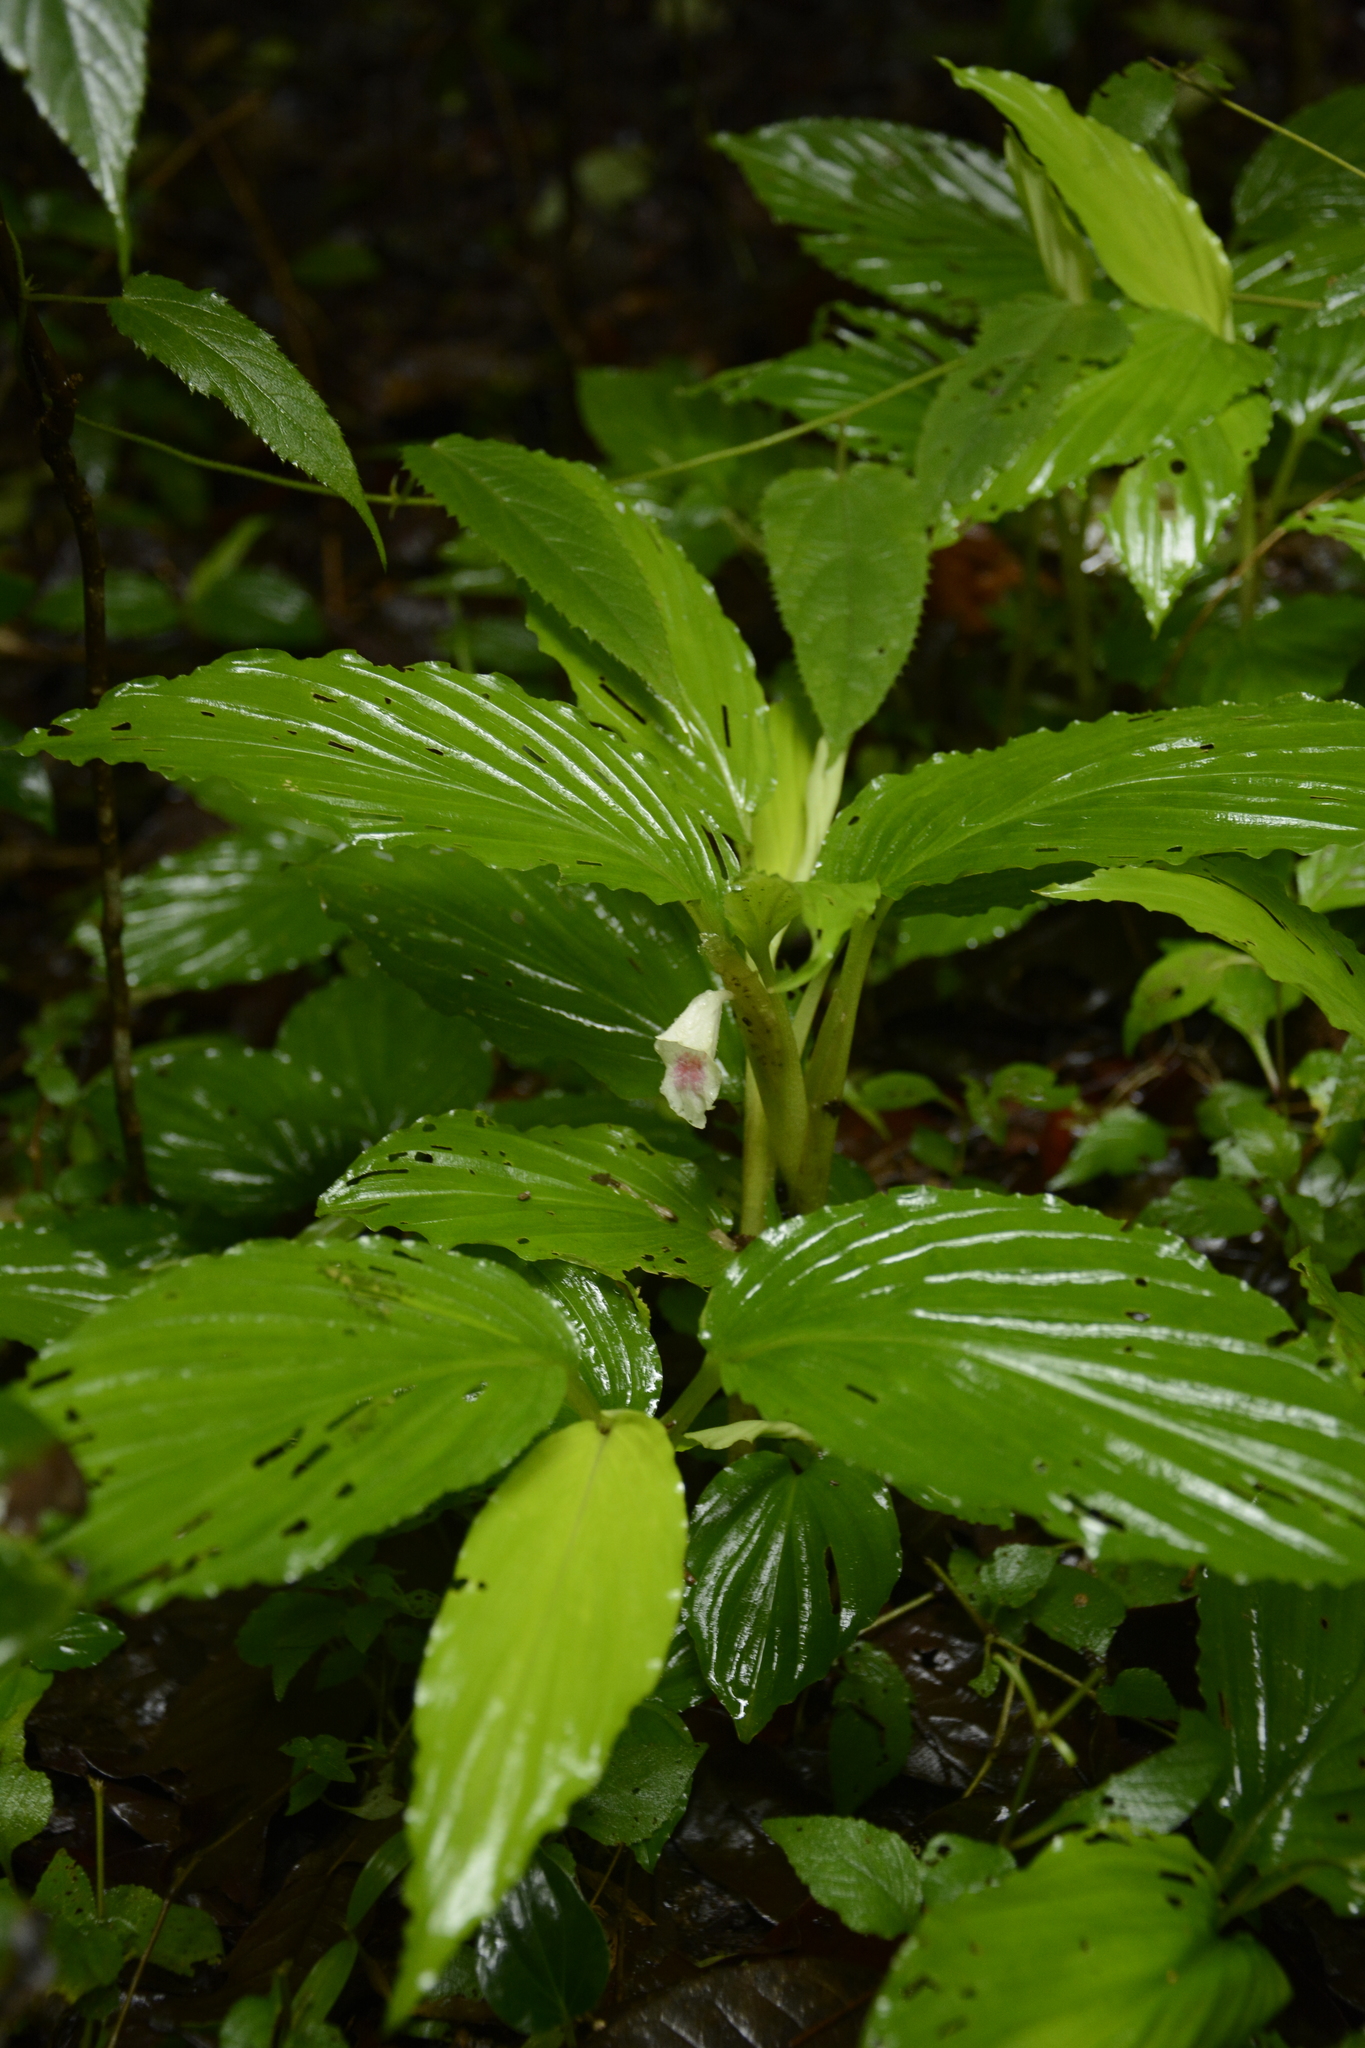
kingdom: Plantae
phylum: Tracheophyta
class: Liliopsida
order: Zingiberales
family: Zingiberaceae
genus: Boesenbergia
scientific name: Boesenbergia tiliifolia
